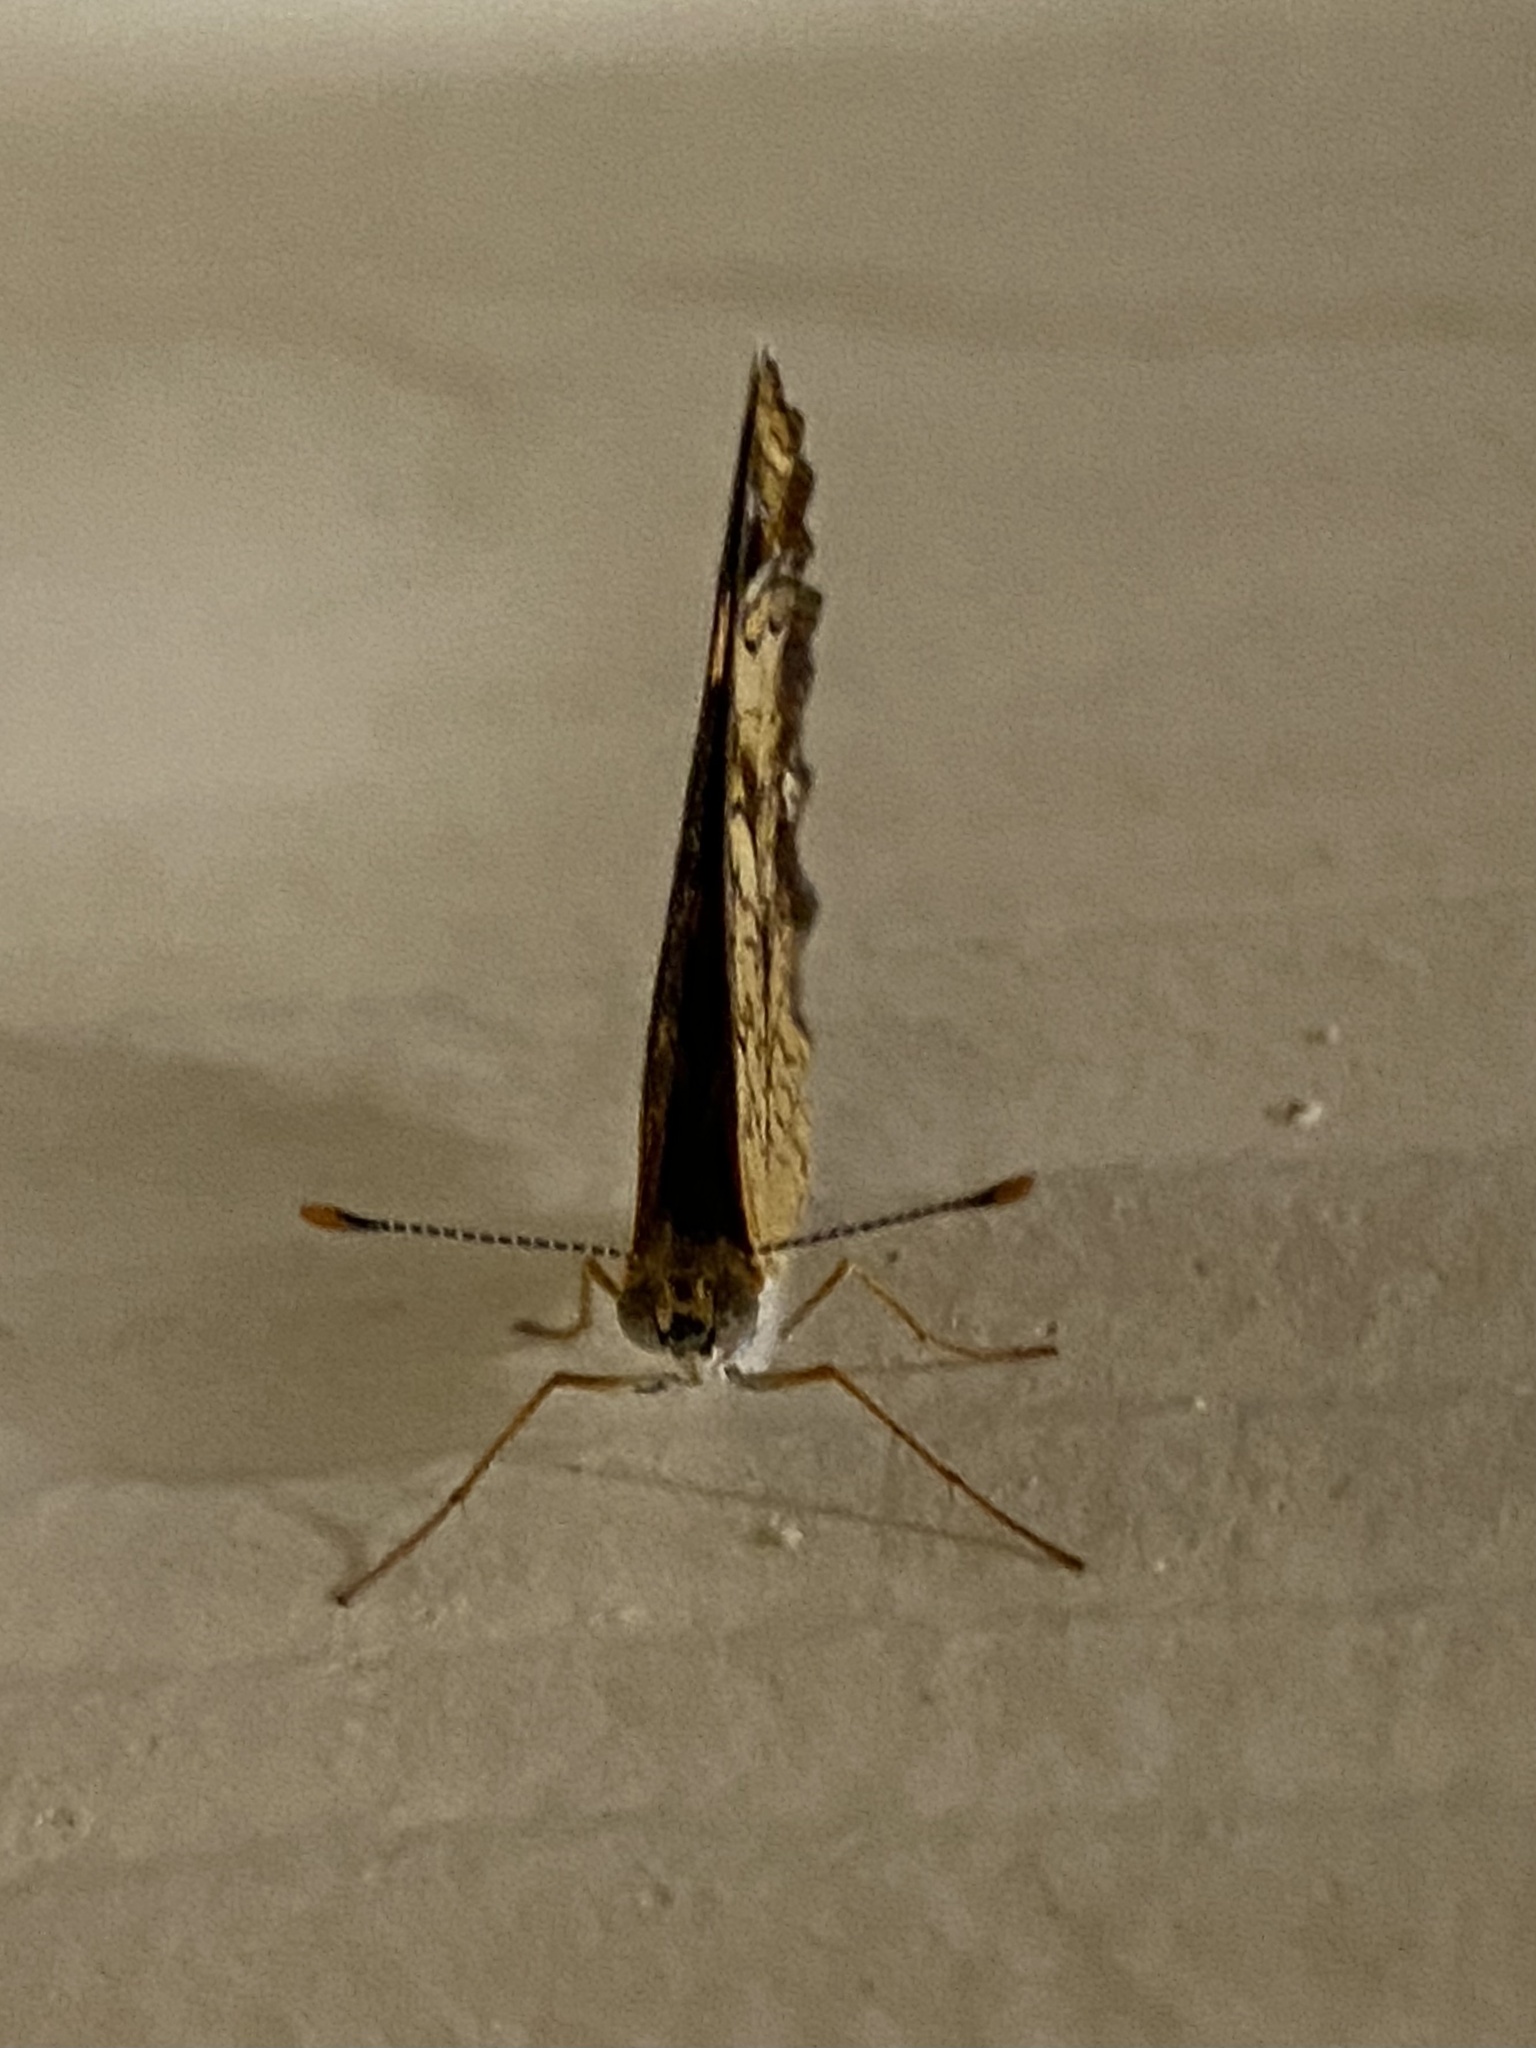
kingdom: Animalia
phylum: Arthropoda
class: Insecta
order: Lepidoptera
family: Nymphalidae
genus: Phyciodes
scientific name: Phyciodes tharos
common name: Pearl crescent
